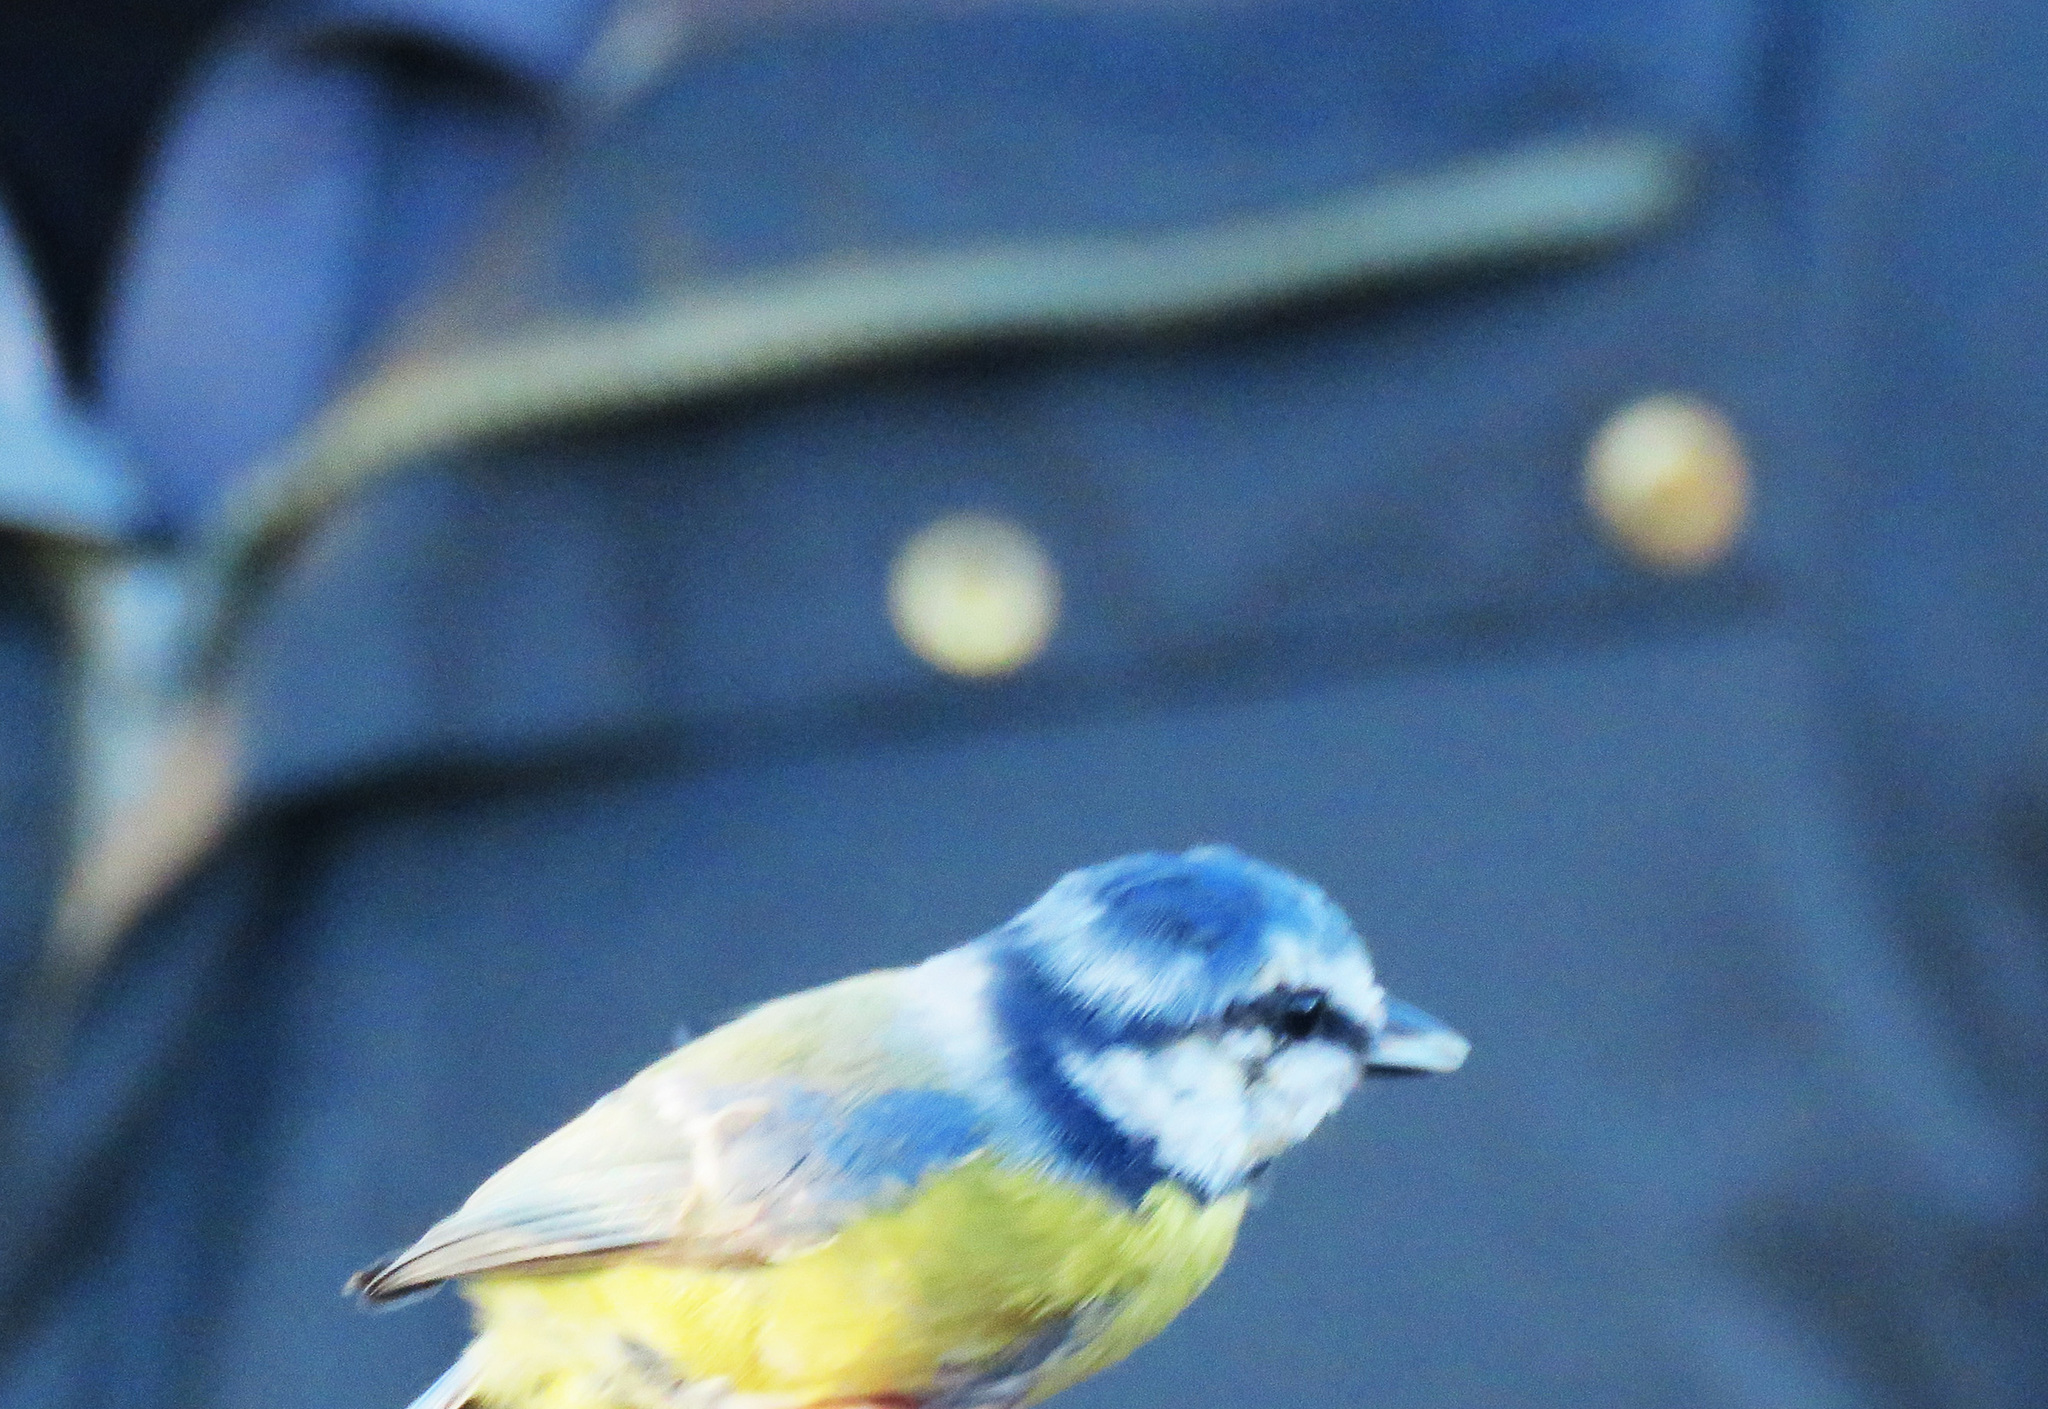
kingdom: Animalia
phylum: Chordata
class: Aves
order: Passeriformes
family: Paridae
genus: Cyanistes
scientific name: Cyanistes caeruleus
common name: Eurasian blue tit
